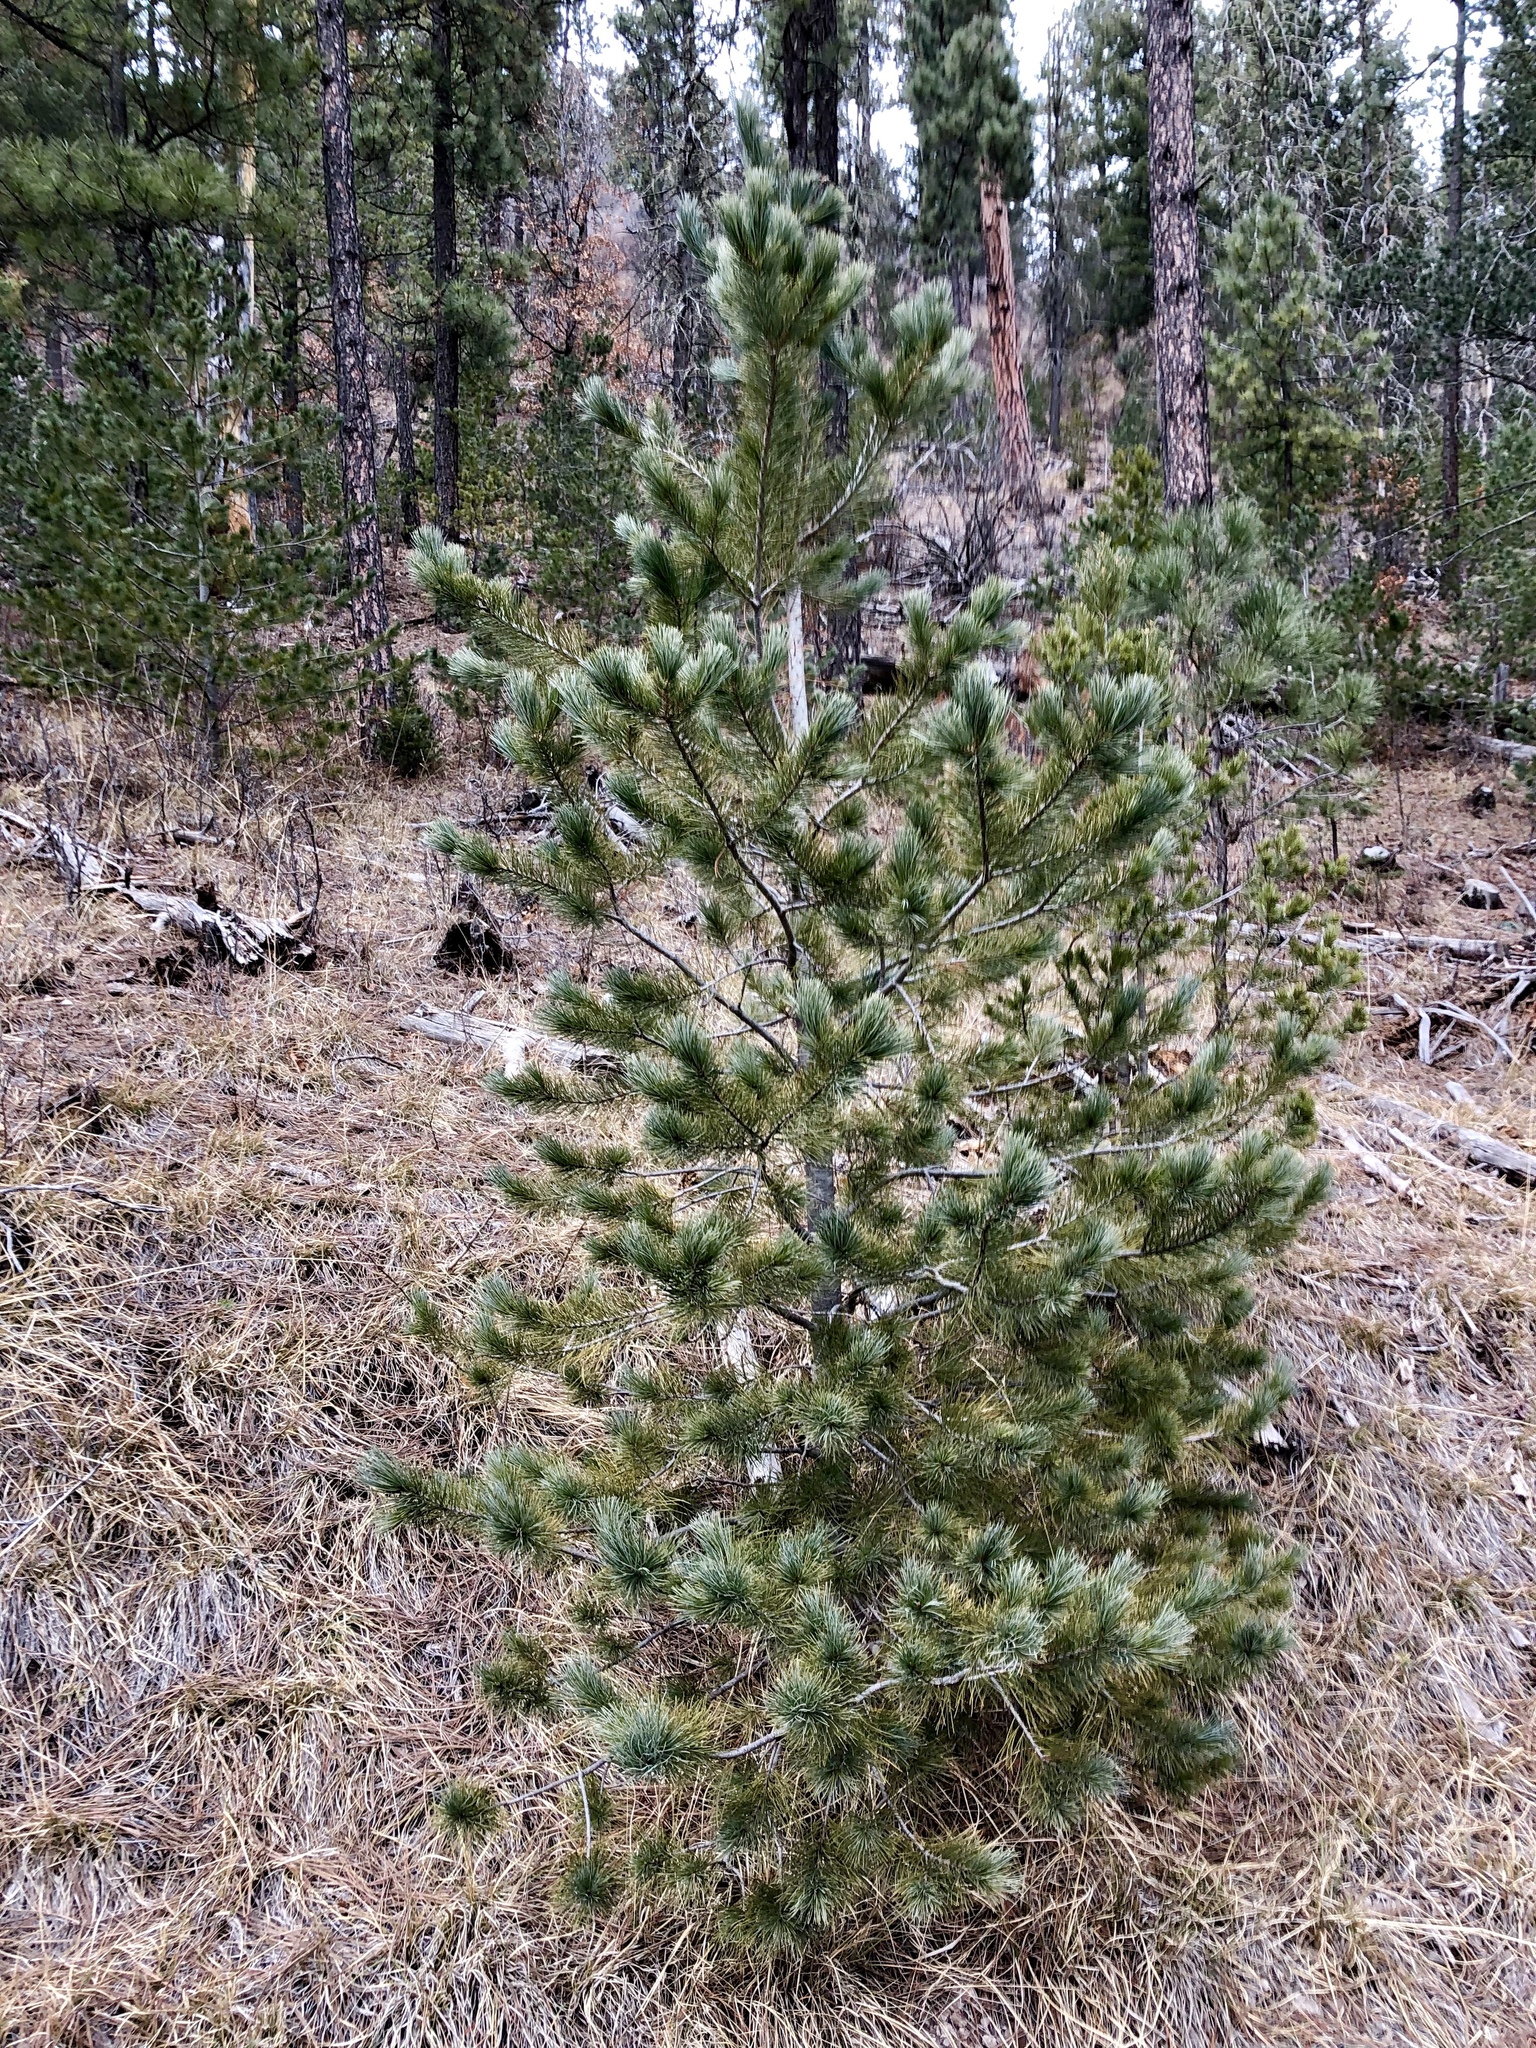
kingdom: Plantae
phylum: Tracheophyta
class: Pinopsida
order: Pinales
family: Pinaceae
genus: Pinus
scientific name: Pinus strobiformis
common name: Southwestern white pine
